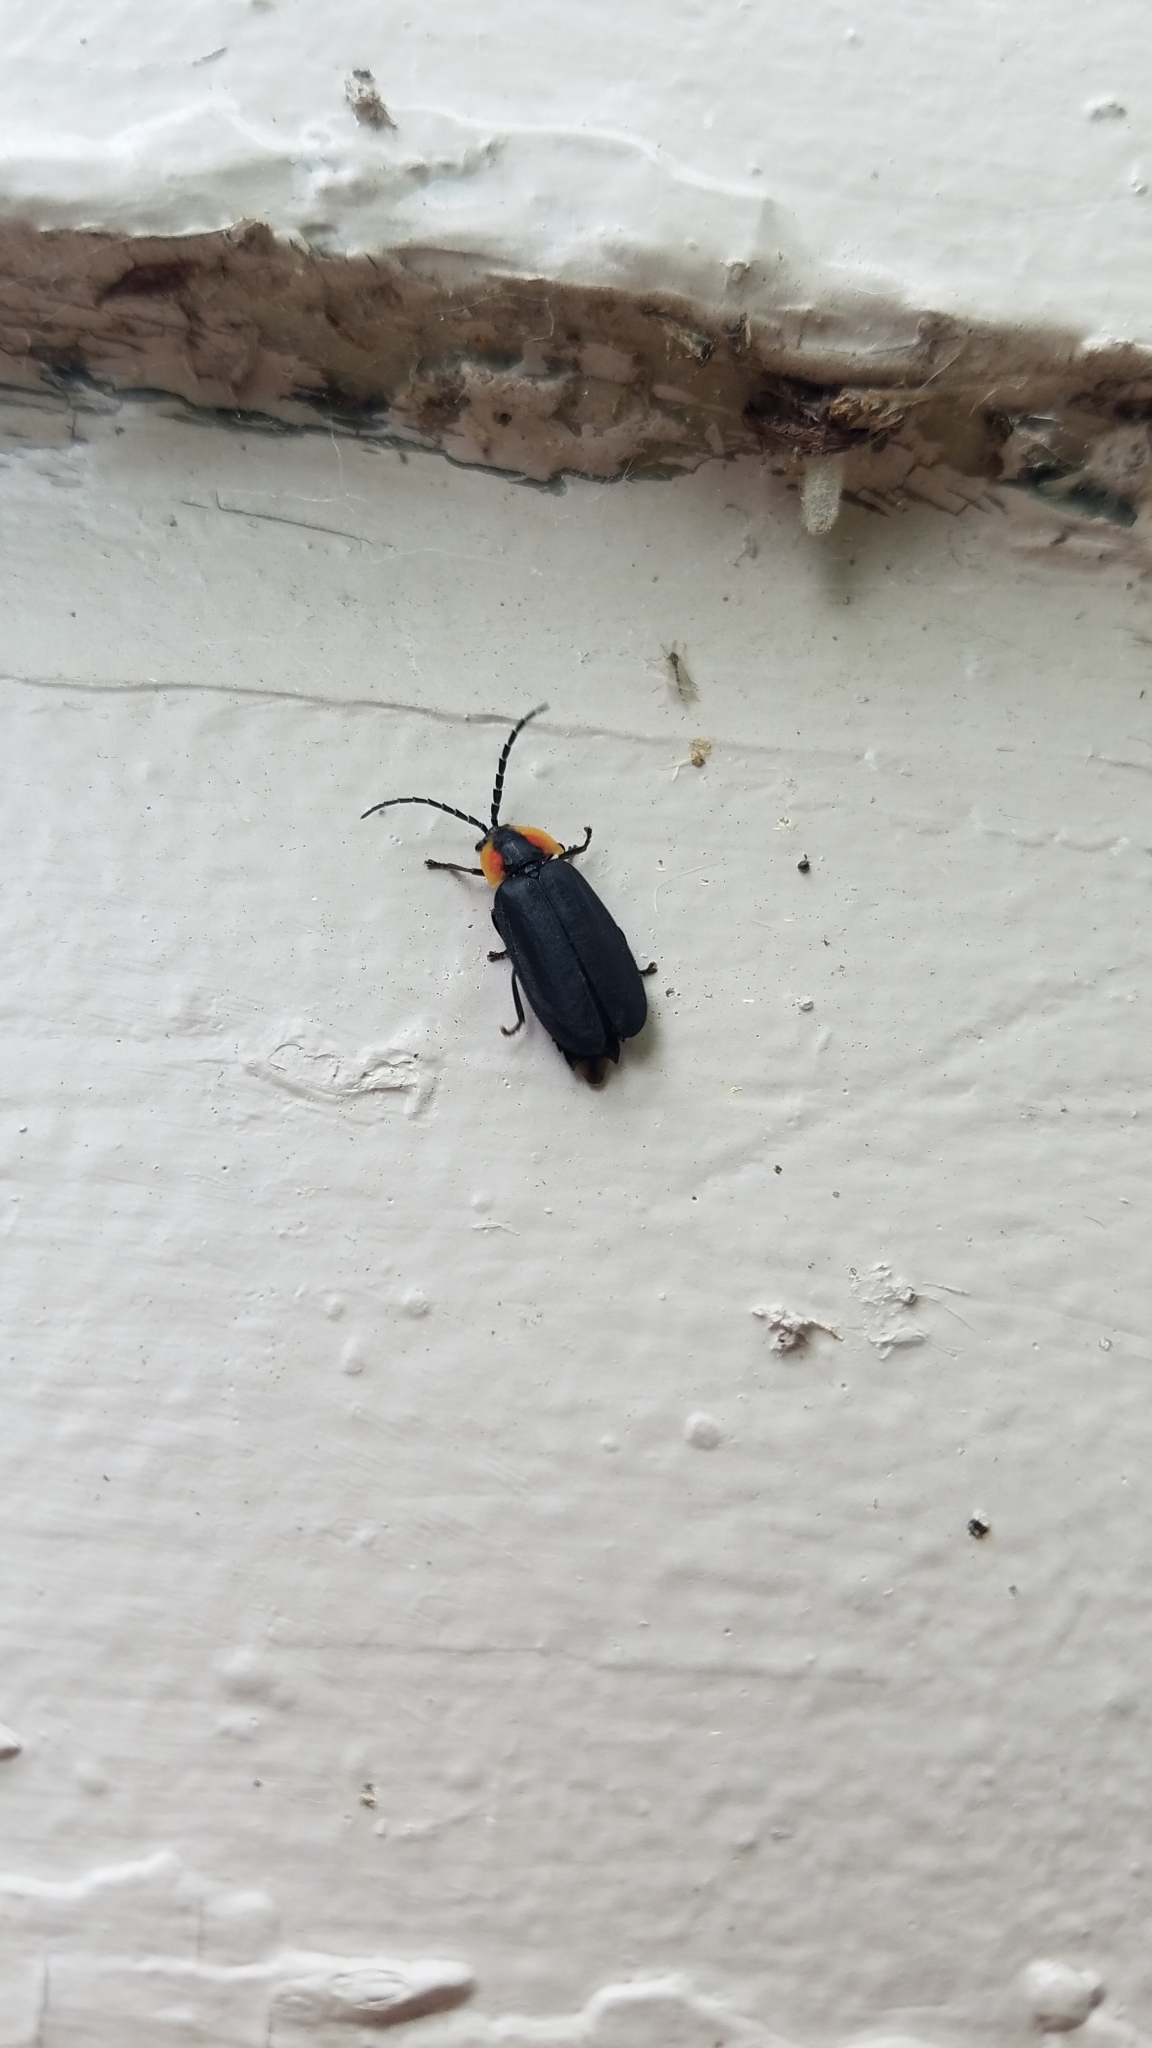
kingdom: Animalia
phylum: Arthropoda
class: Insecta
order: Coleoptera
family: Lampyridae
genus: Lucidota
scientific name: Lucidota atra
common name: Black firefly
